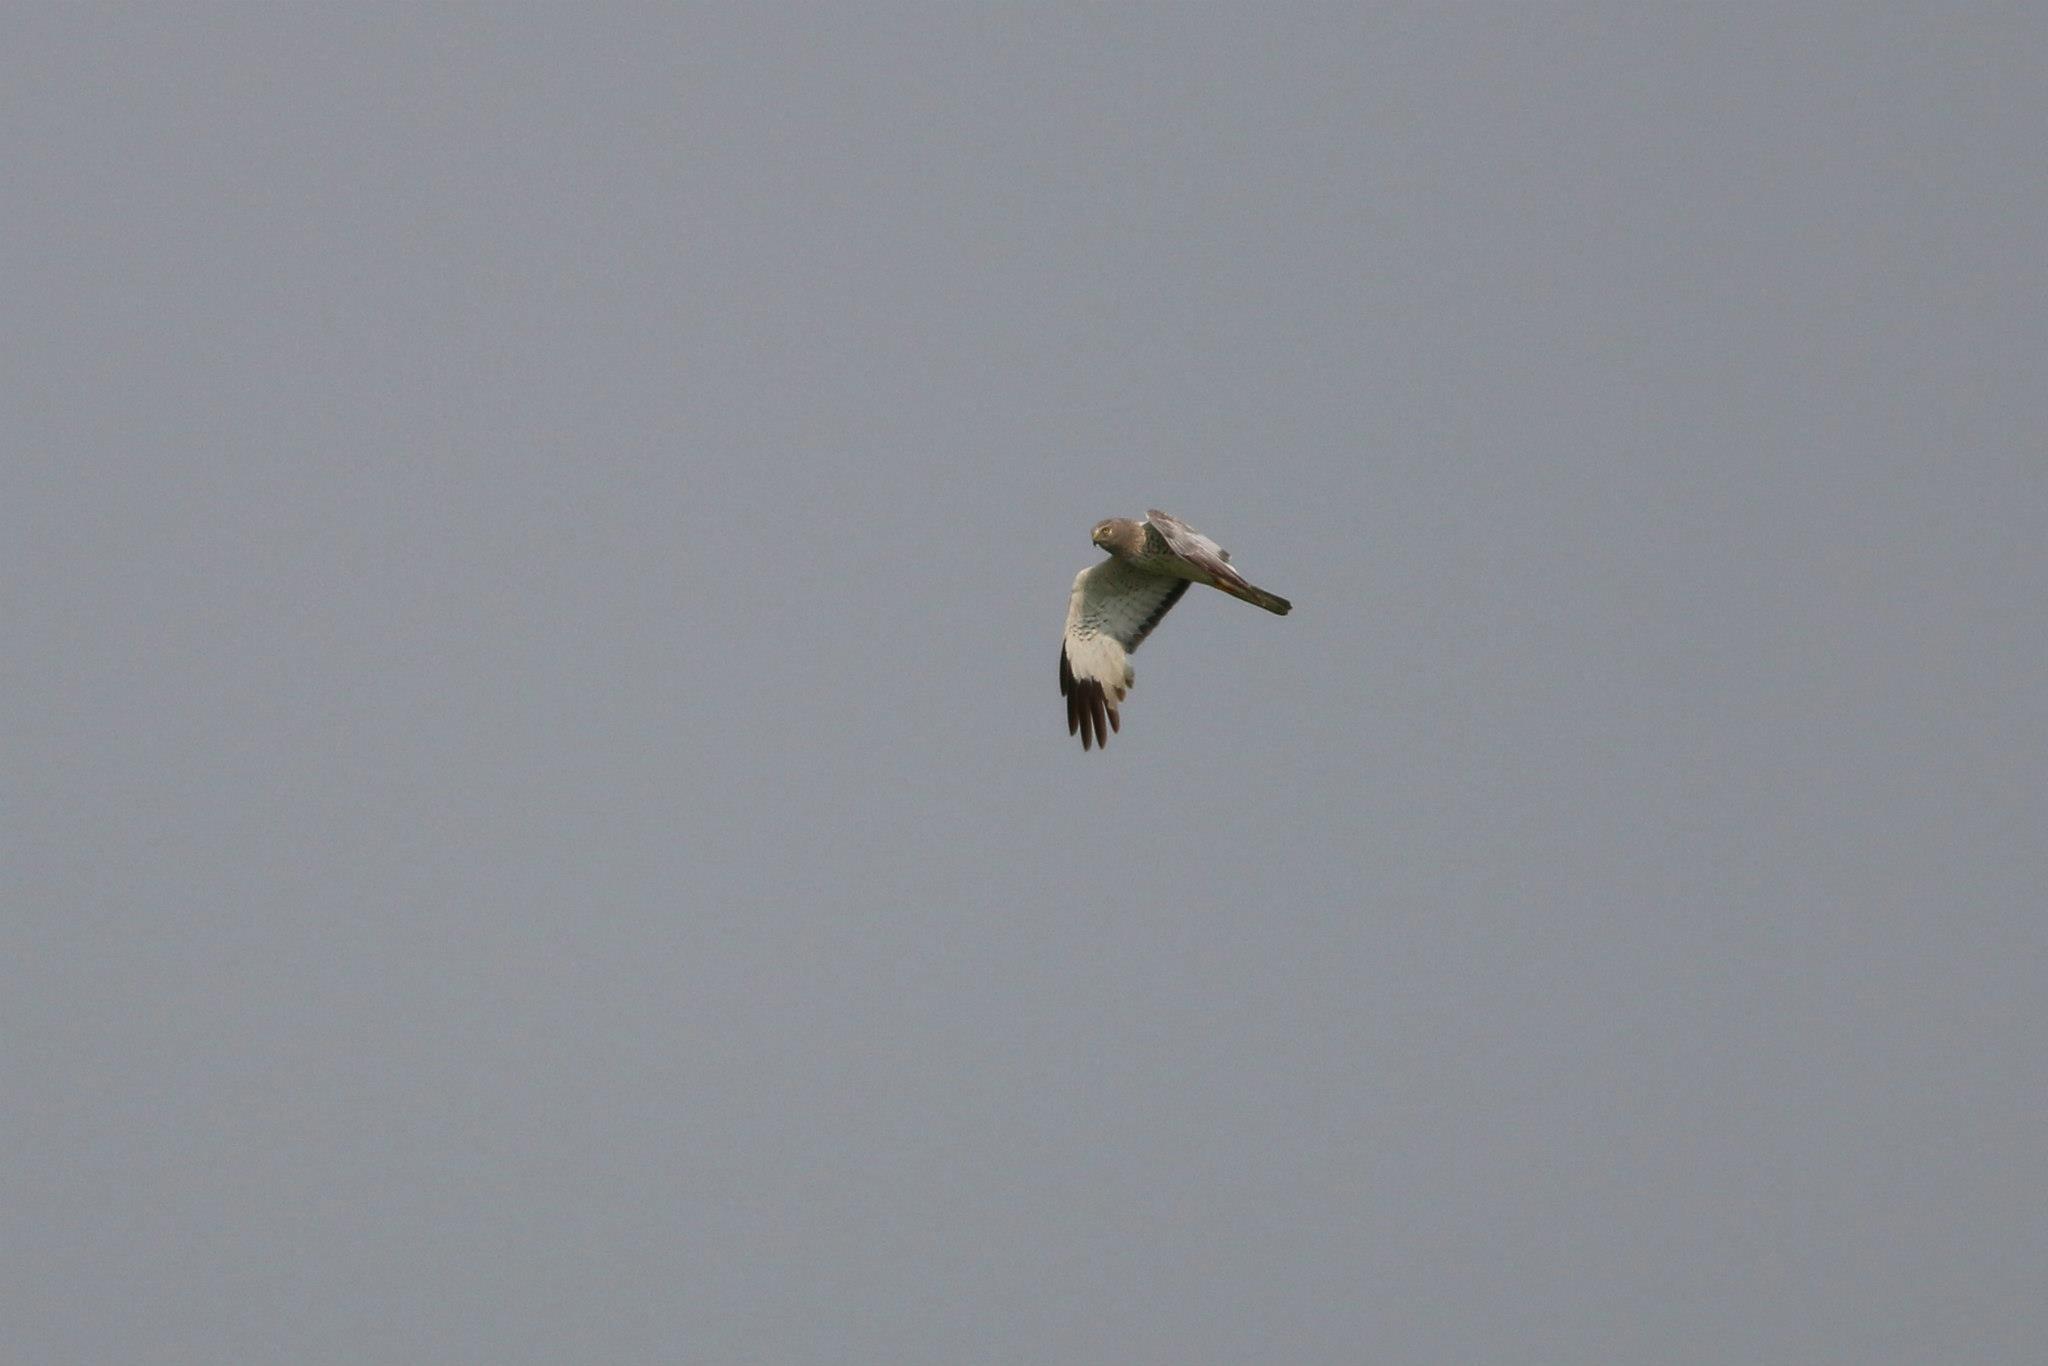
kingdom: Animalia
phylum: Chordata
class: Aves
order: Accipitriformes
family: Accipitridae
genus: Circus
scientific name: Circus cyaneus
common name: Hen harrier
